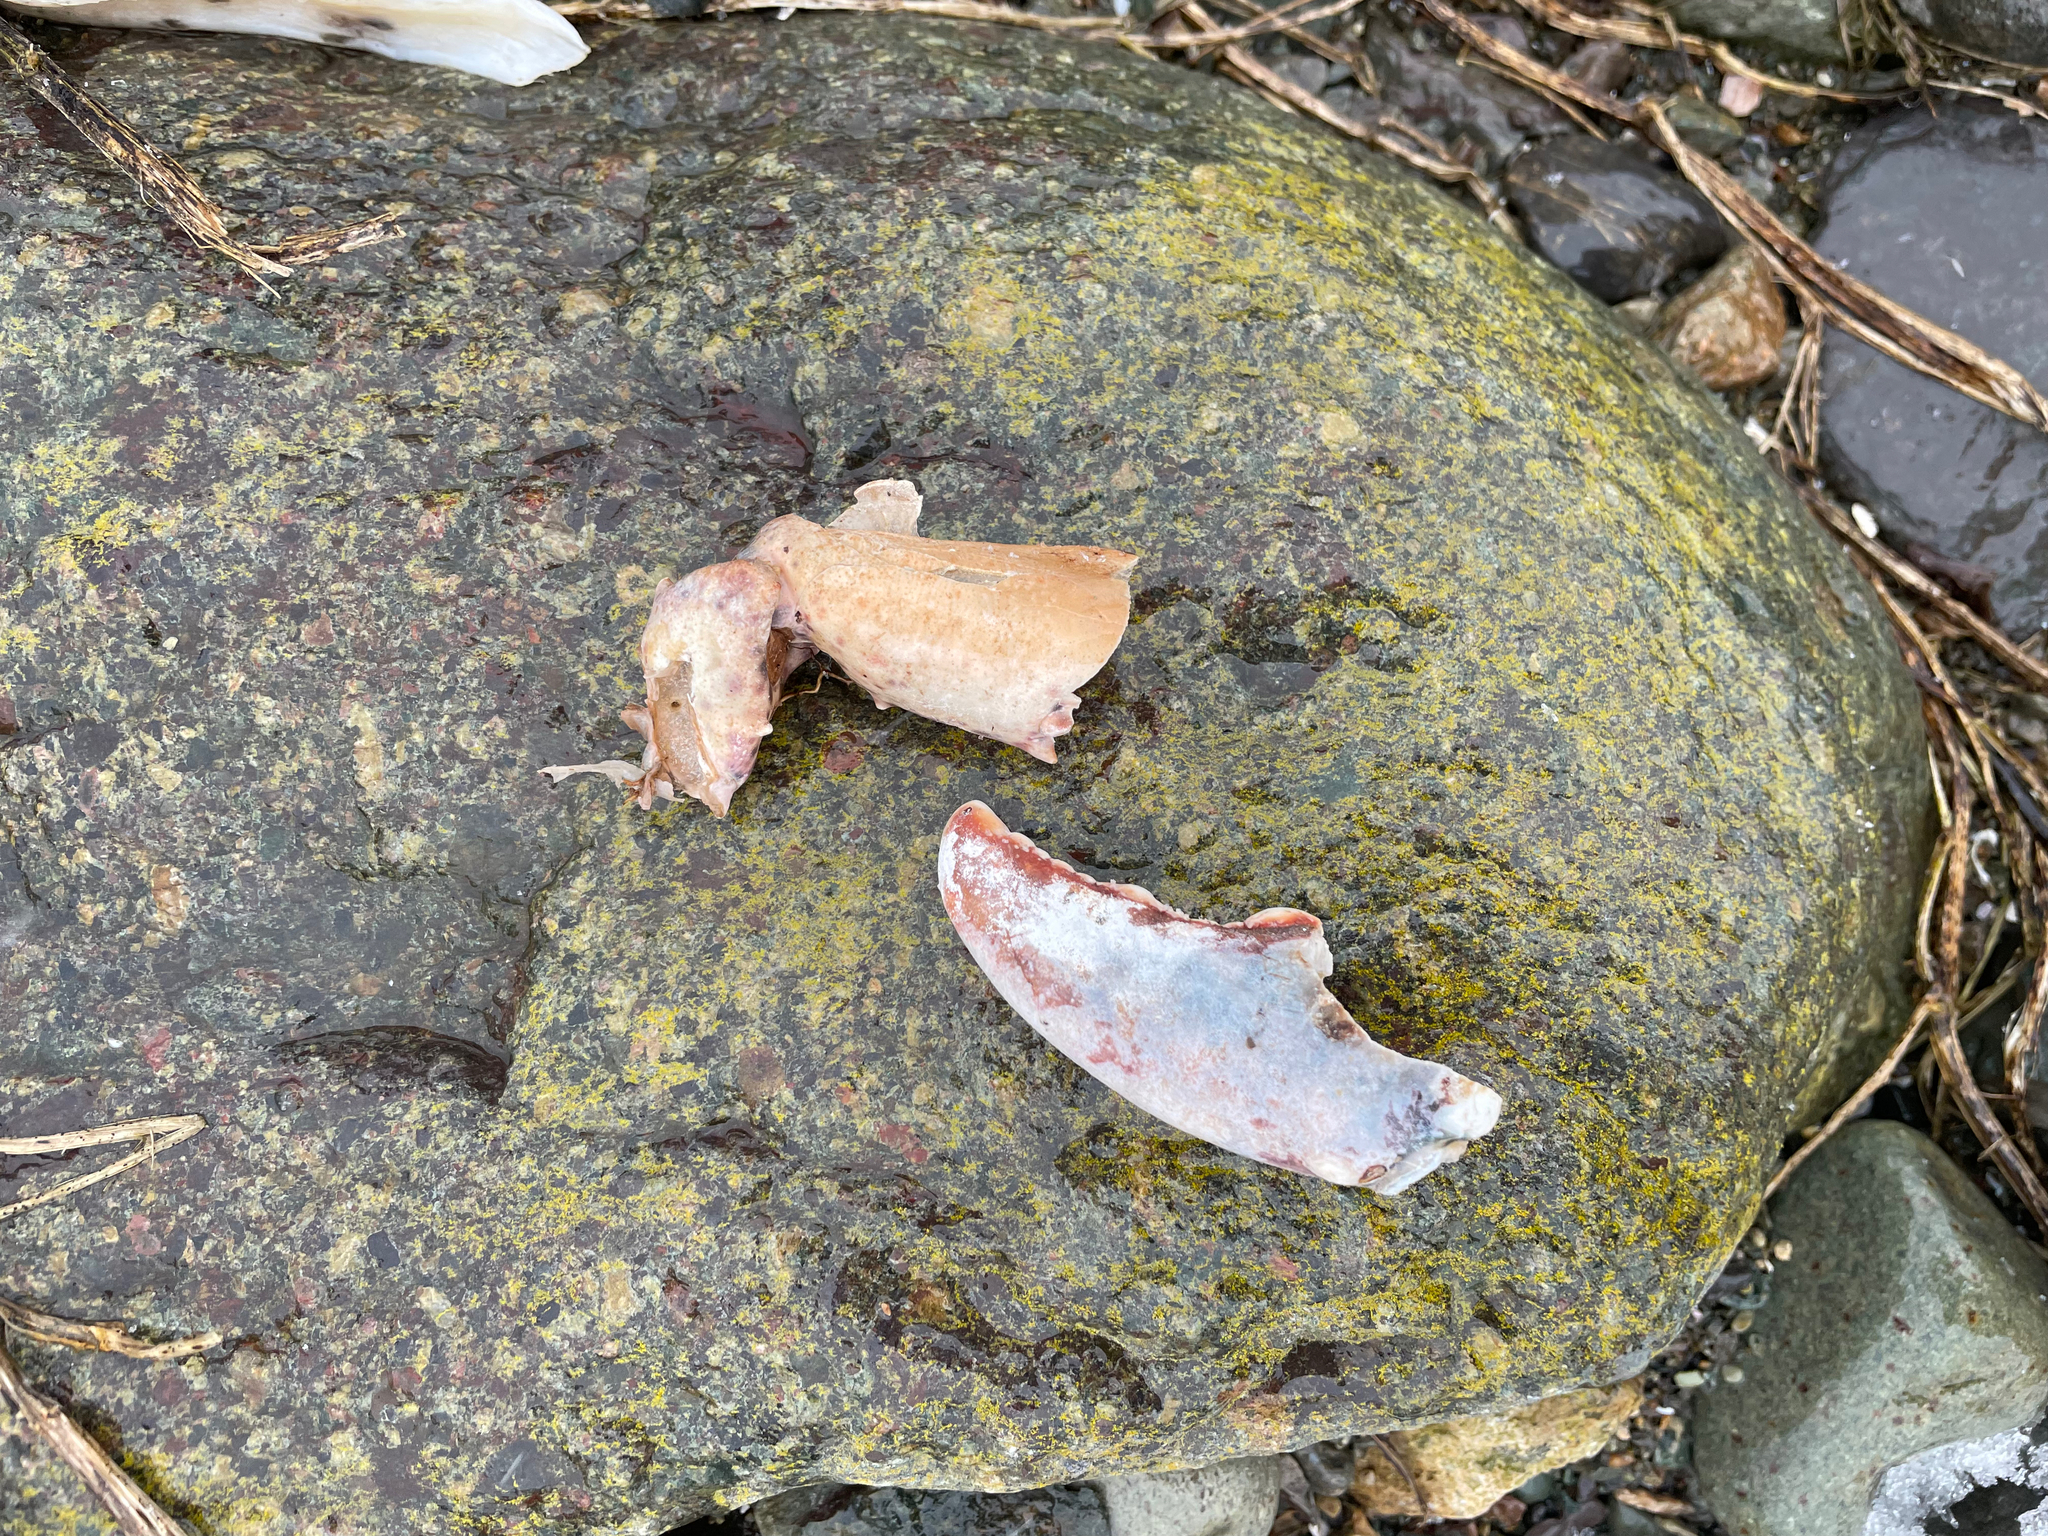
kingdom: Animalia
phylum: Arthropoda
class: Malacostraca
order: Decapoda
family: Nephropidae
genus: Homarus
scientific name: Homarus americanus
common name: American lobster
